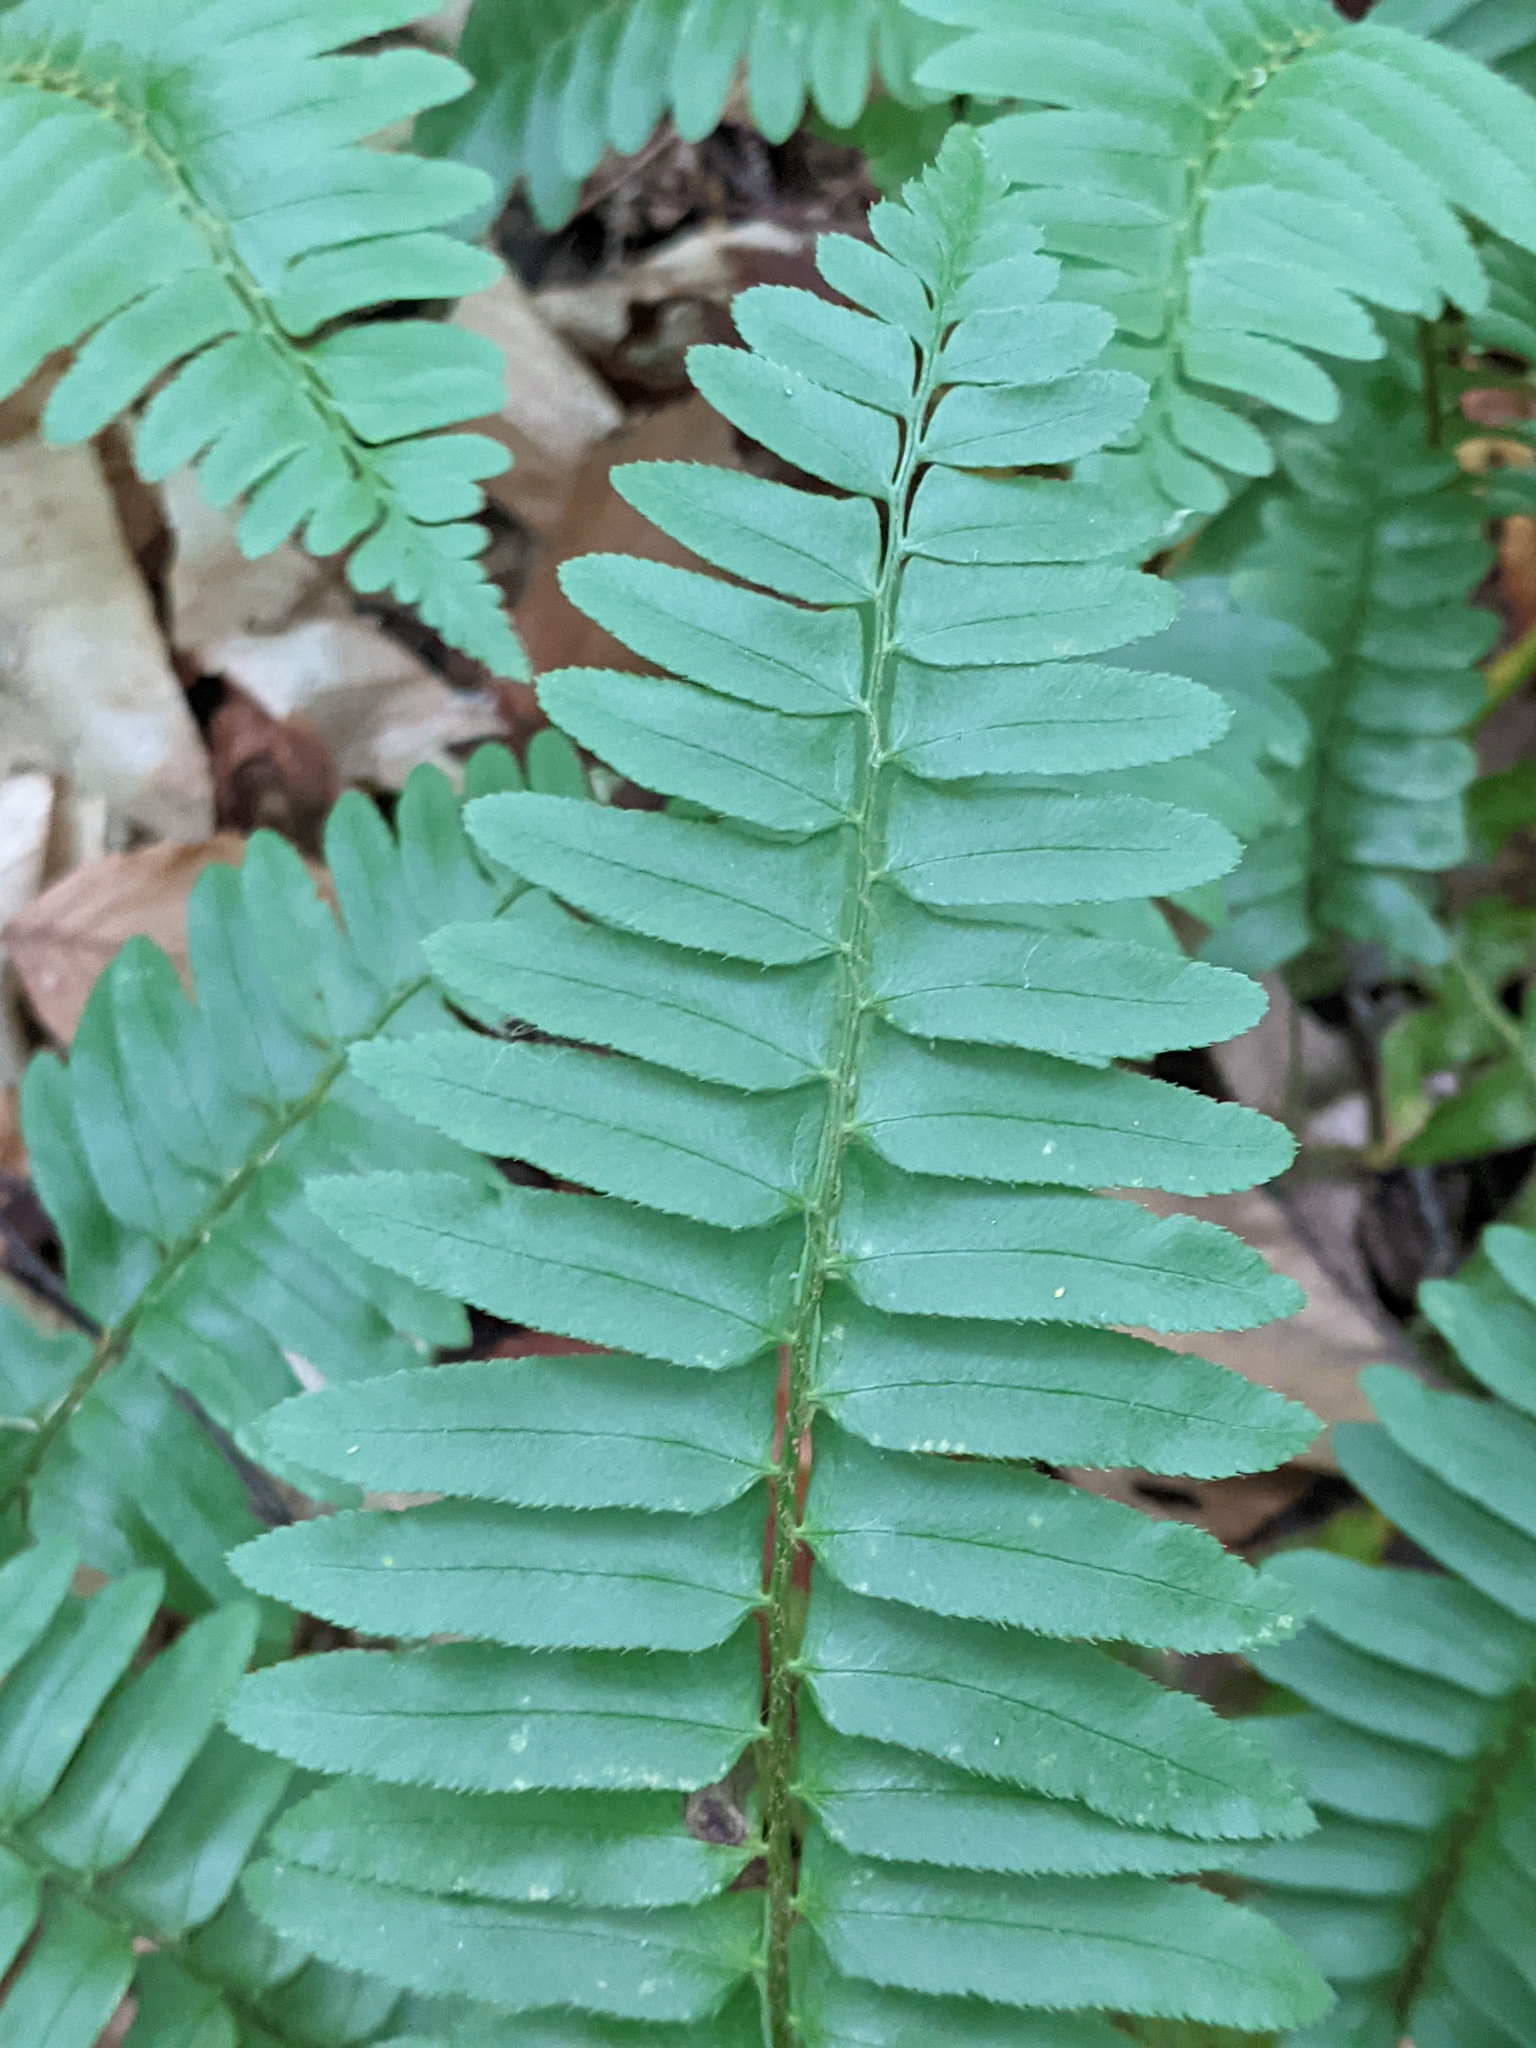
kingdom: Plantae
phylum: Tracheophyta
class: Polypodiopsida
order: Polypodiales
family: Dryopteridaceae
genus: Polystichum
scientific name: Polystichum acrostichoides
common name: Christmas fern
